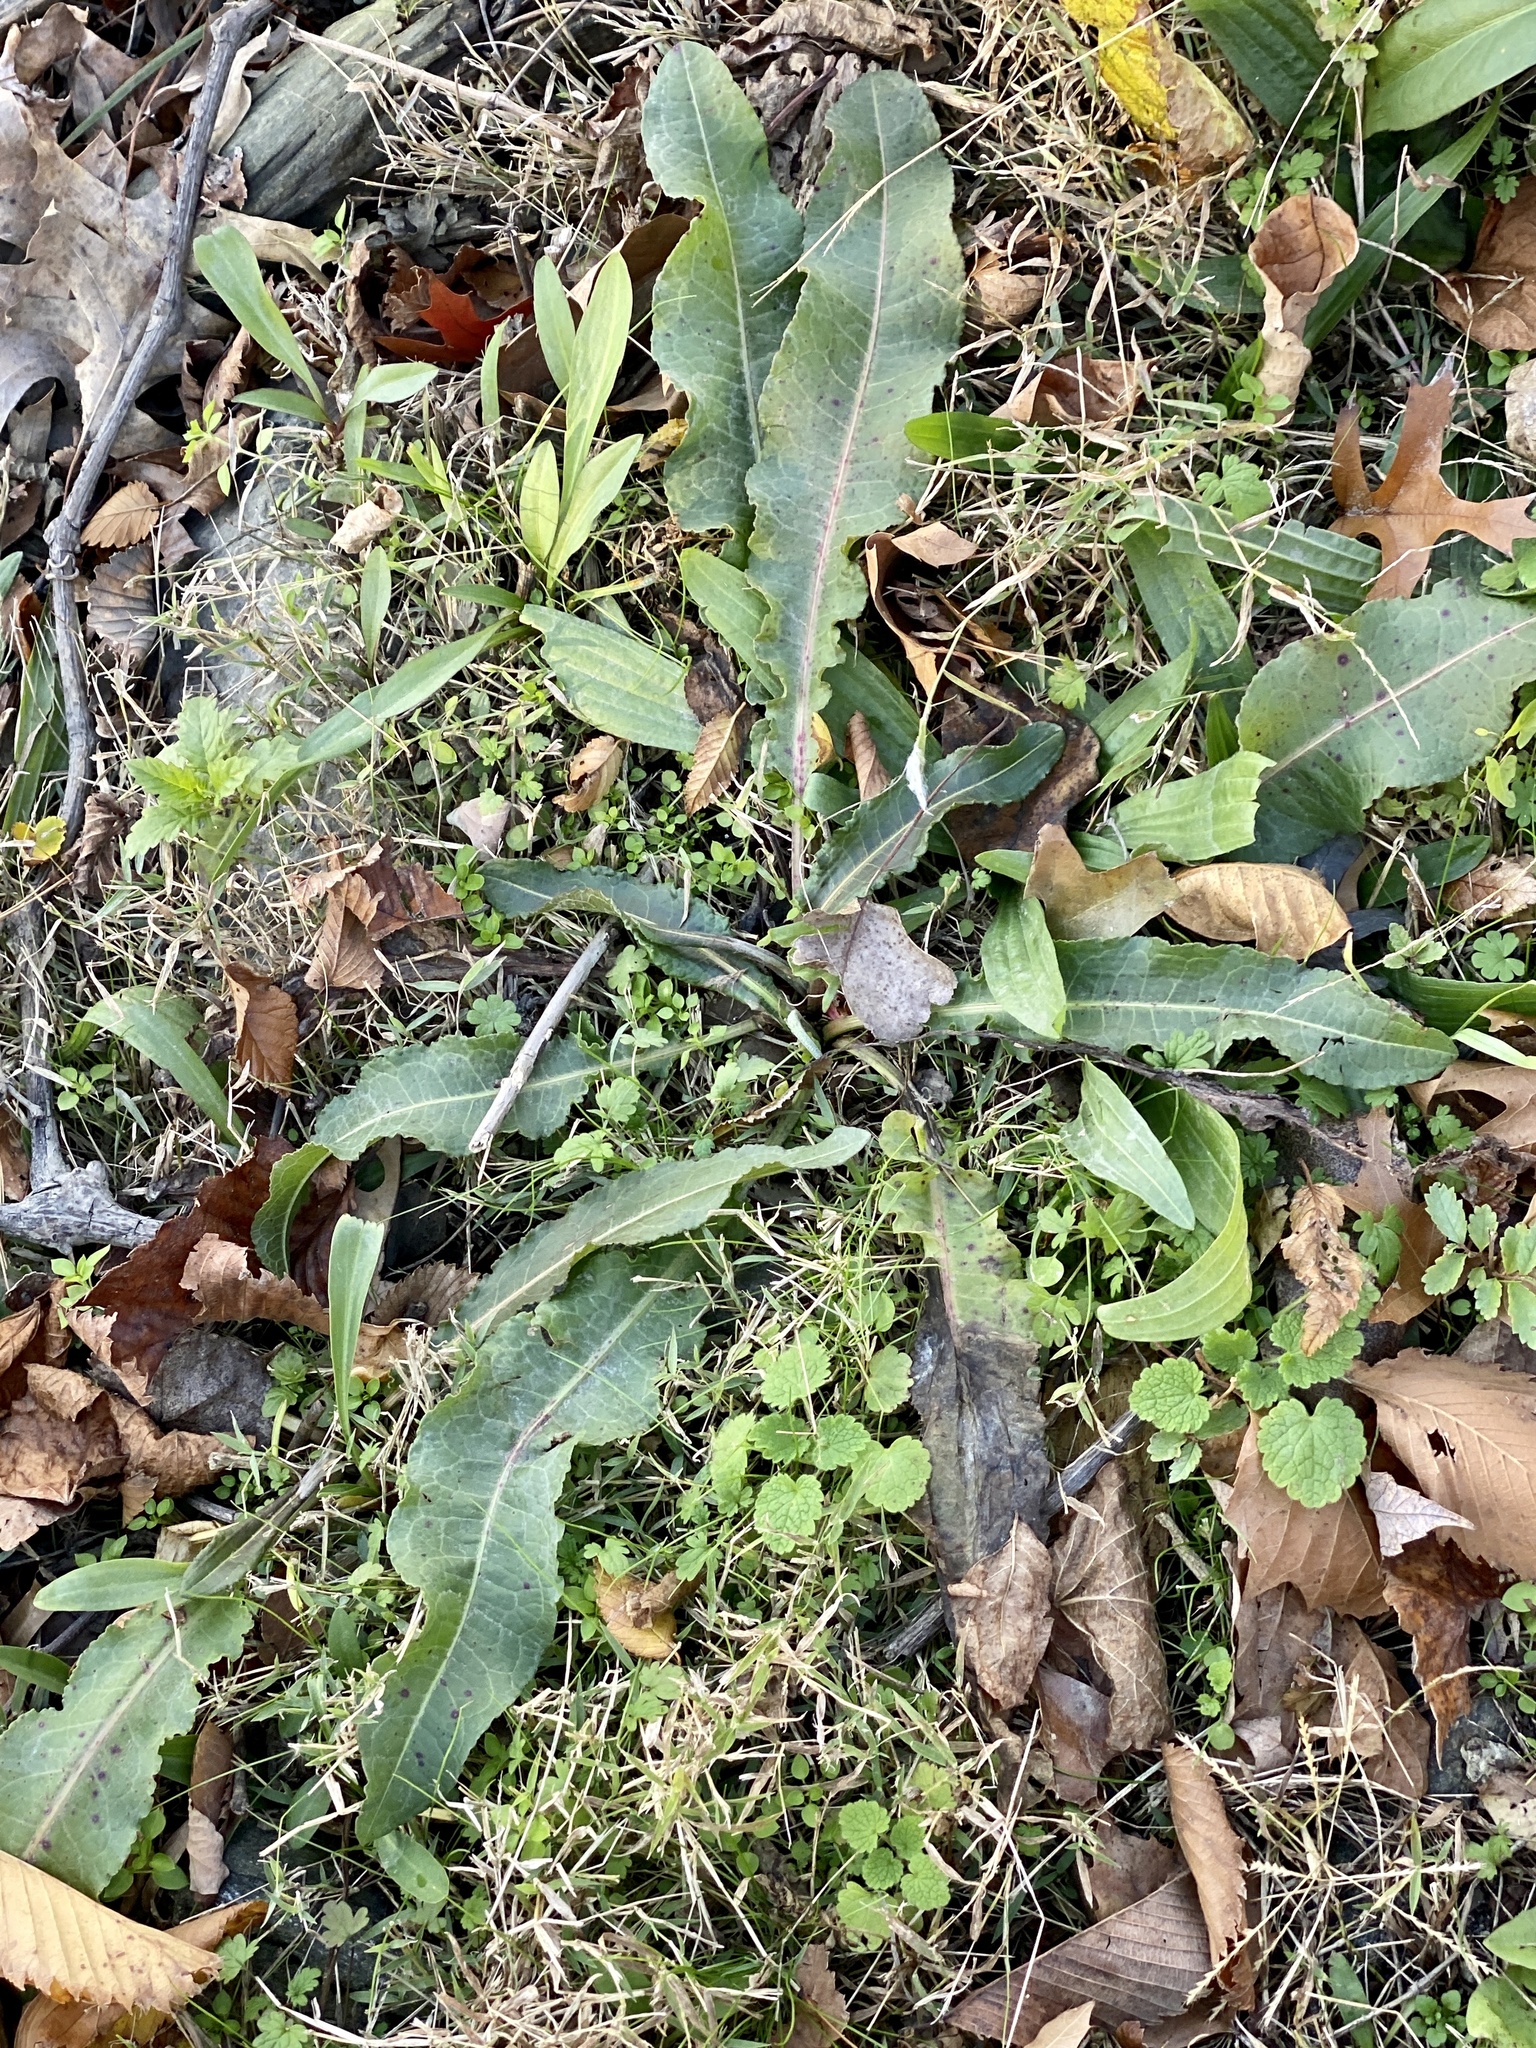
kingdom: Plantae
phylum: Tracheophyta
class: Magnoliopsida
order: Caryophyllales
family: Polygonaceae
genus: Rumex
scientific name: Rumex crispus
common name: Curled dock
